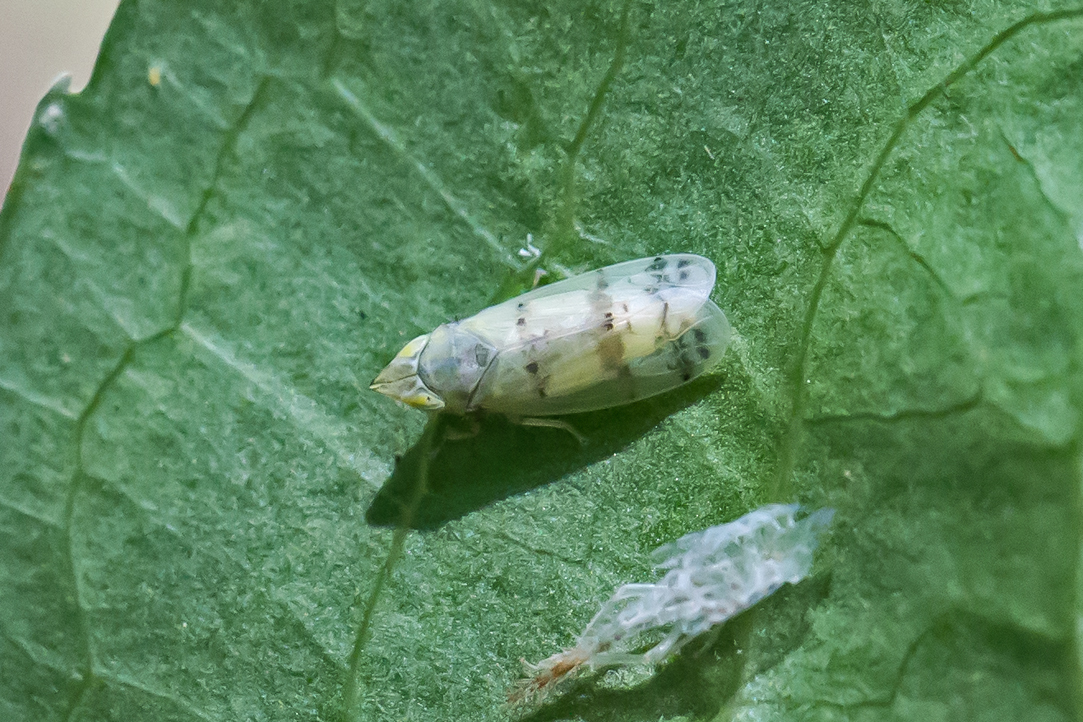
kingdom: Animalia
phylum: Arthropoda
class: Insecta
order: Hemiptera
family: Cicadellidae
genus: Japananus
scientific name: Japananus hyalinus
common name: The japanese maple leafhopper
